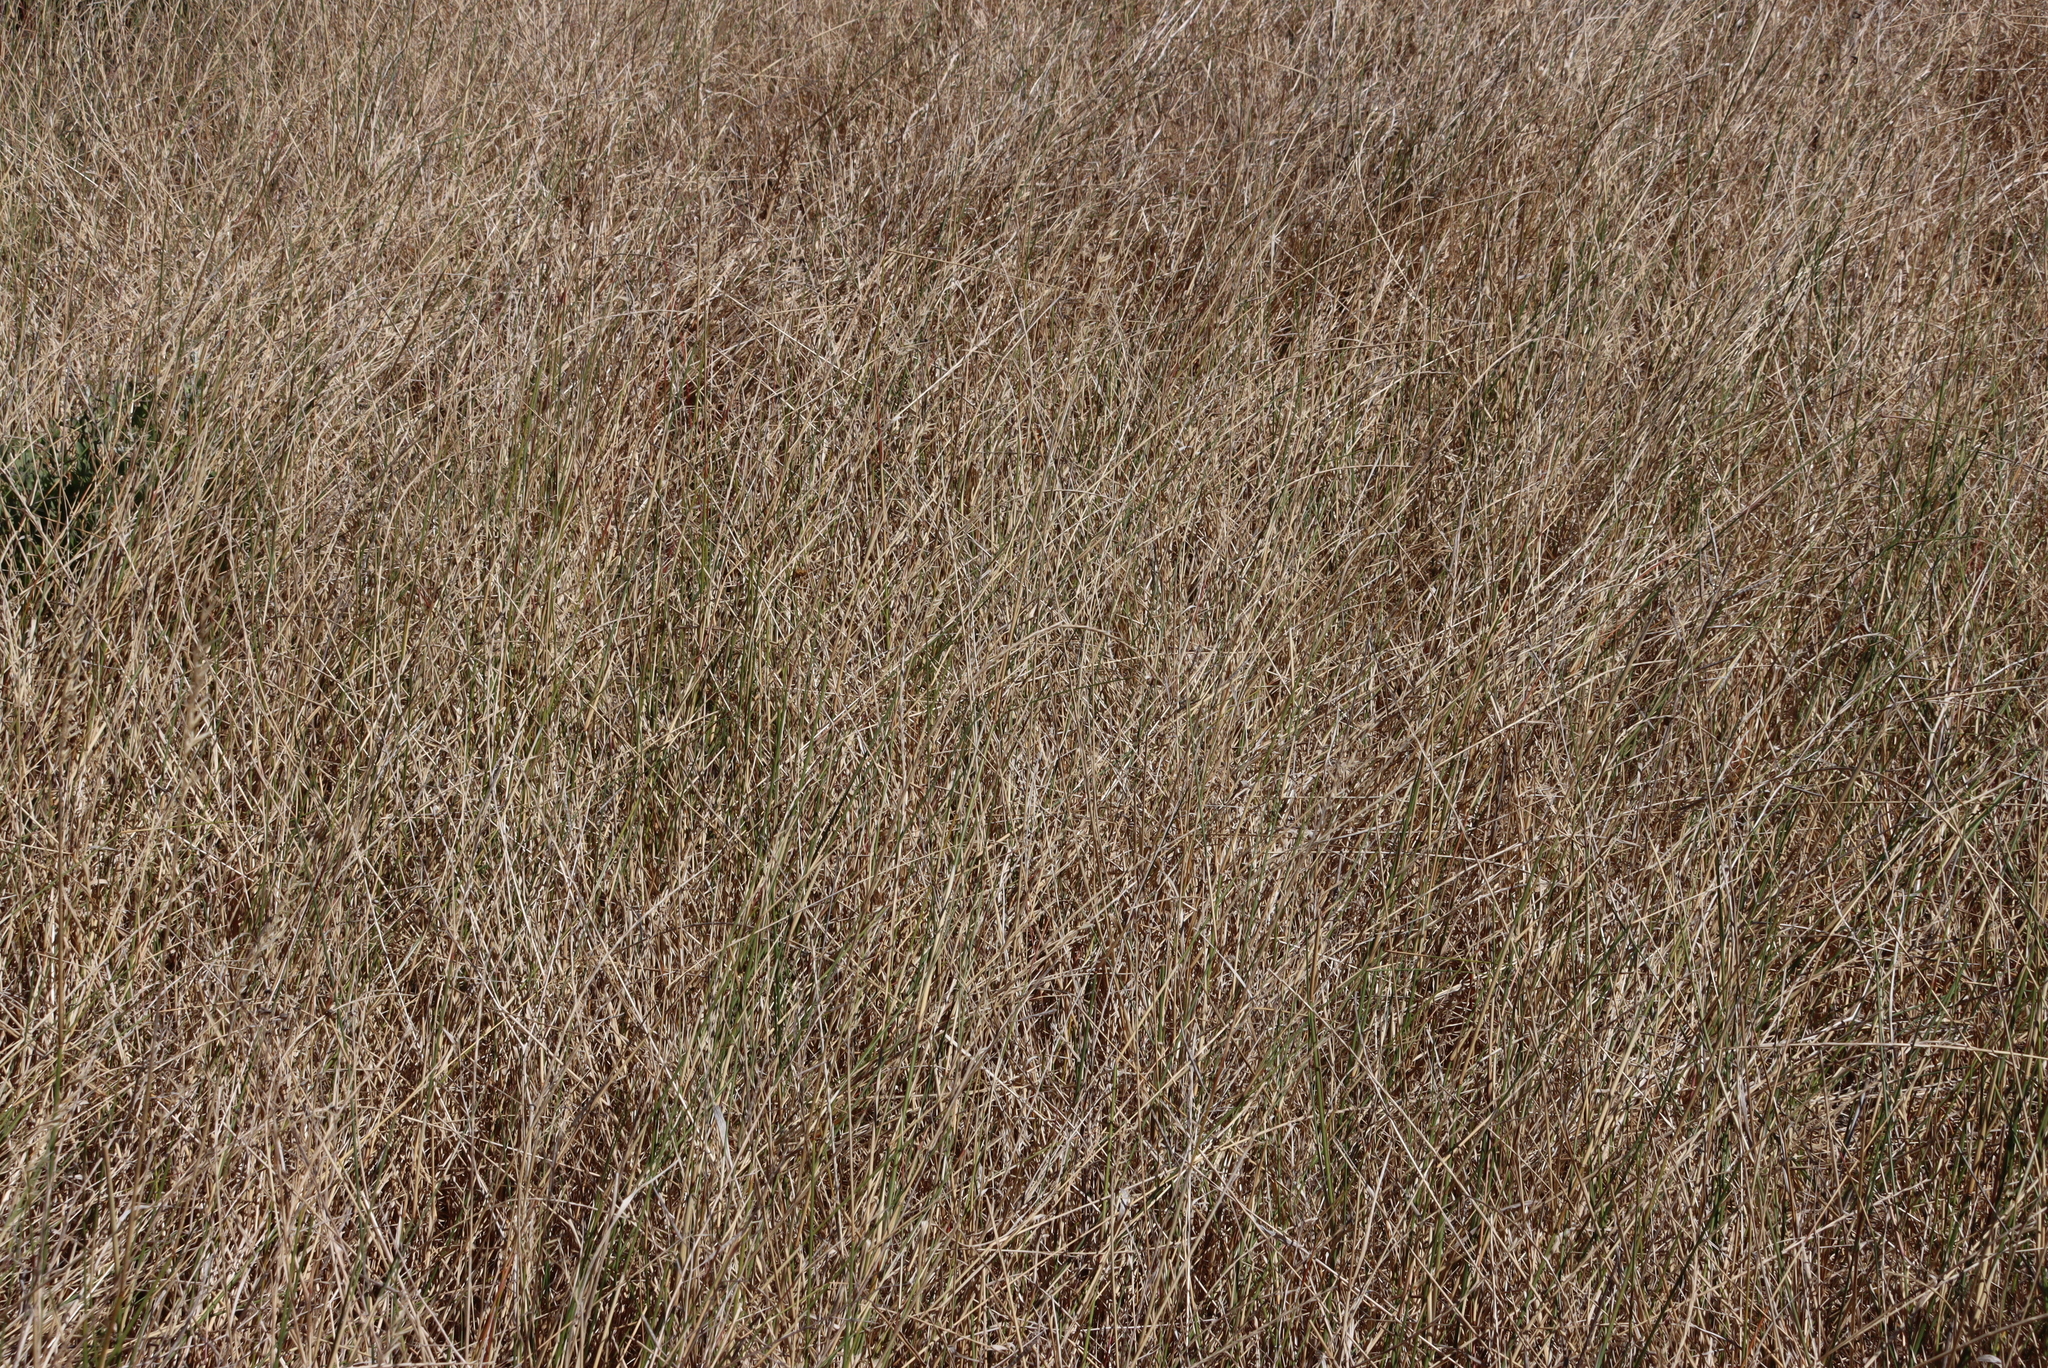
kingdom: Plantae
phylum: Tracheophyta
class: Liliopsida
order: Poales
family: Poaceae
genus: Ehrharta
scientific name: Ehrharta villosa
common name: Pyp grass
